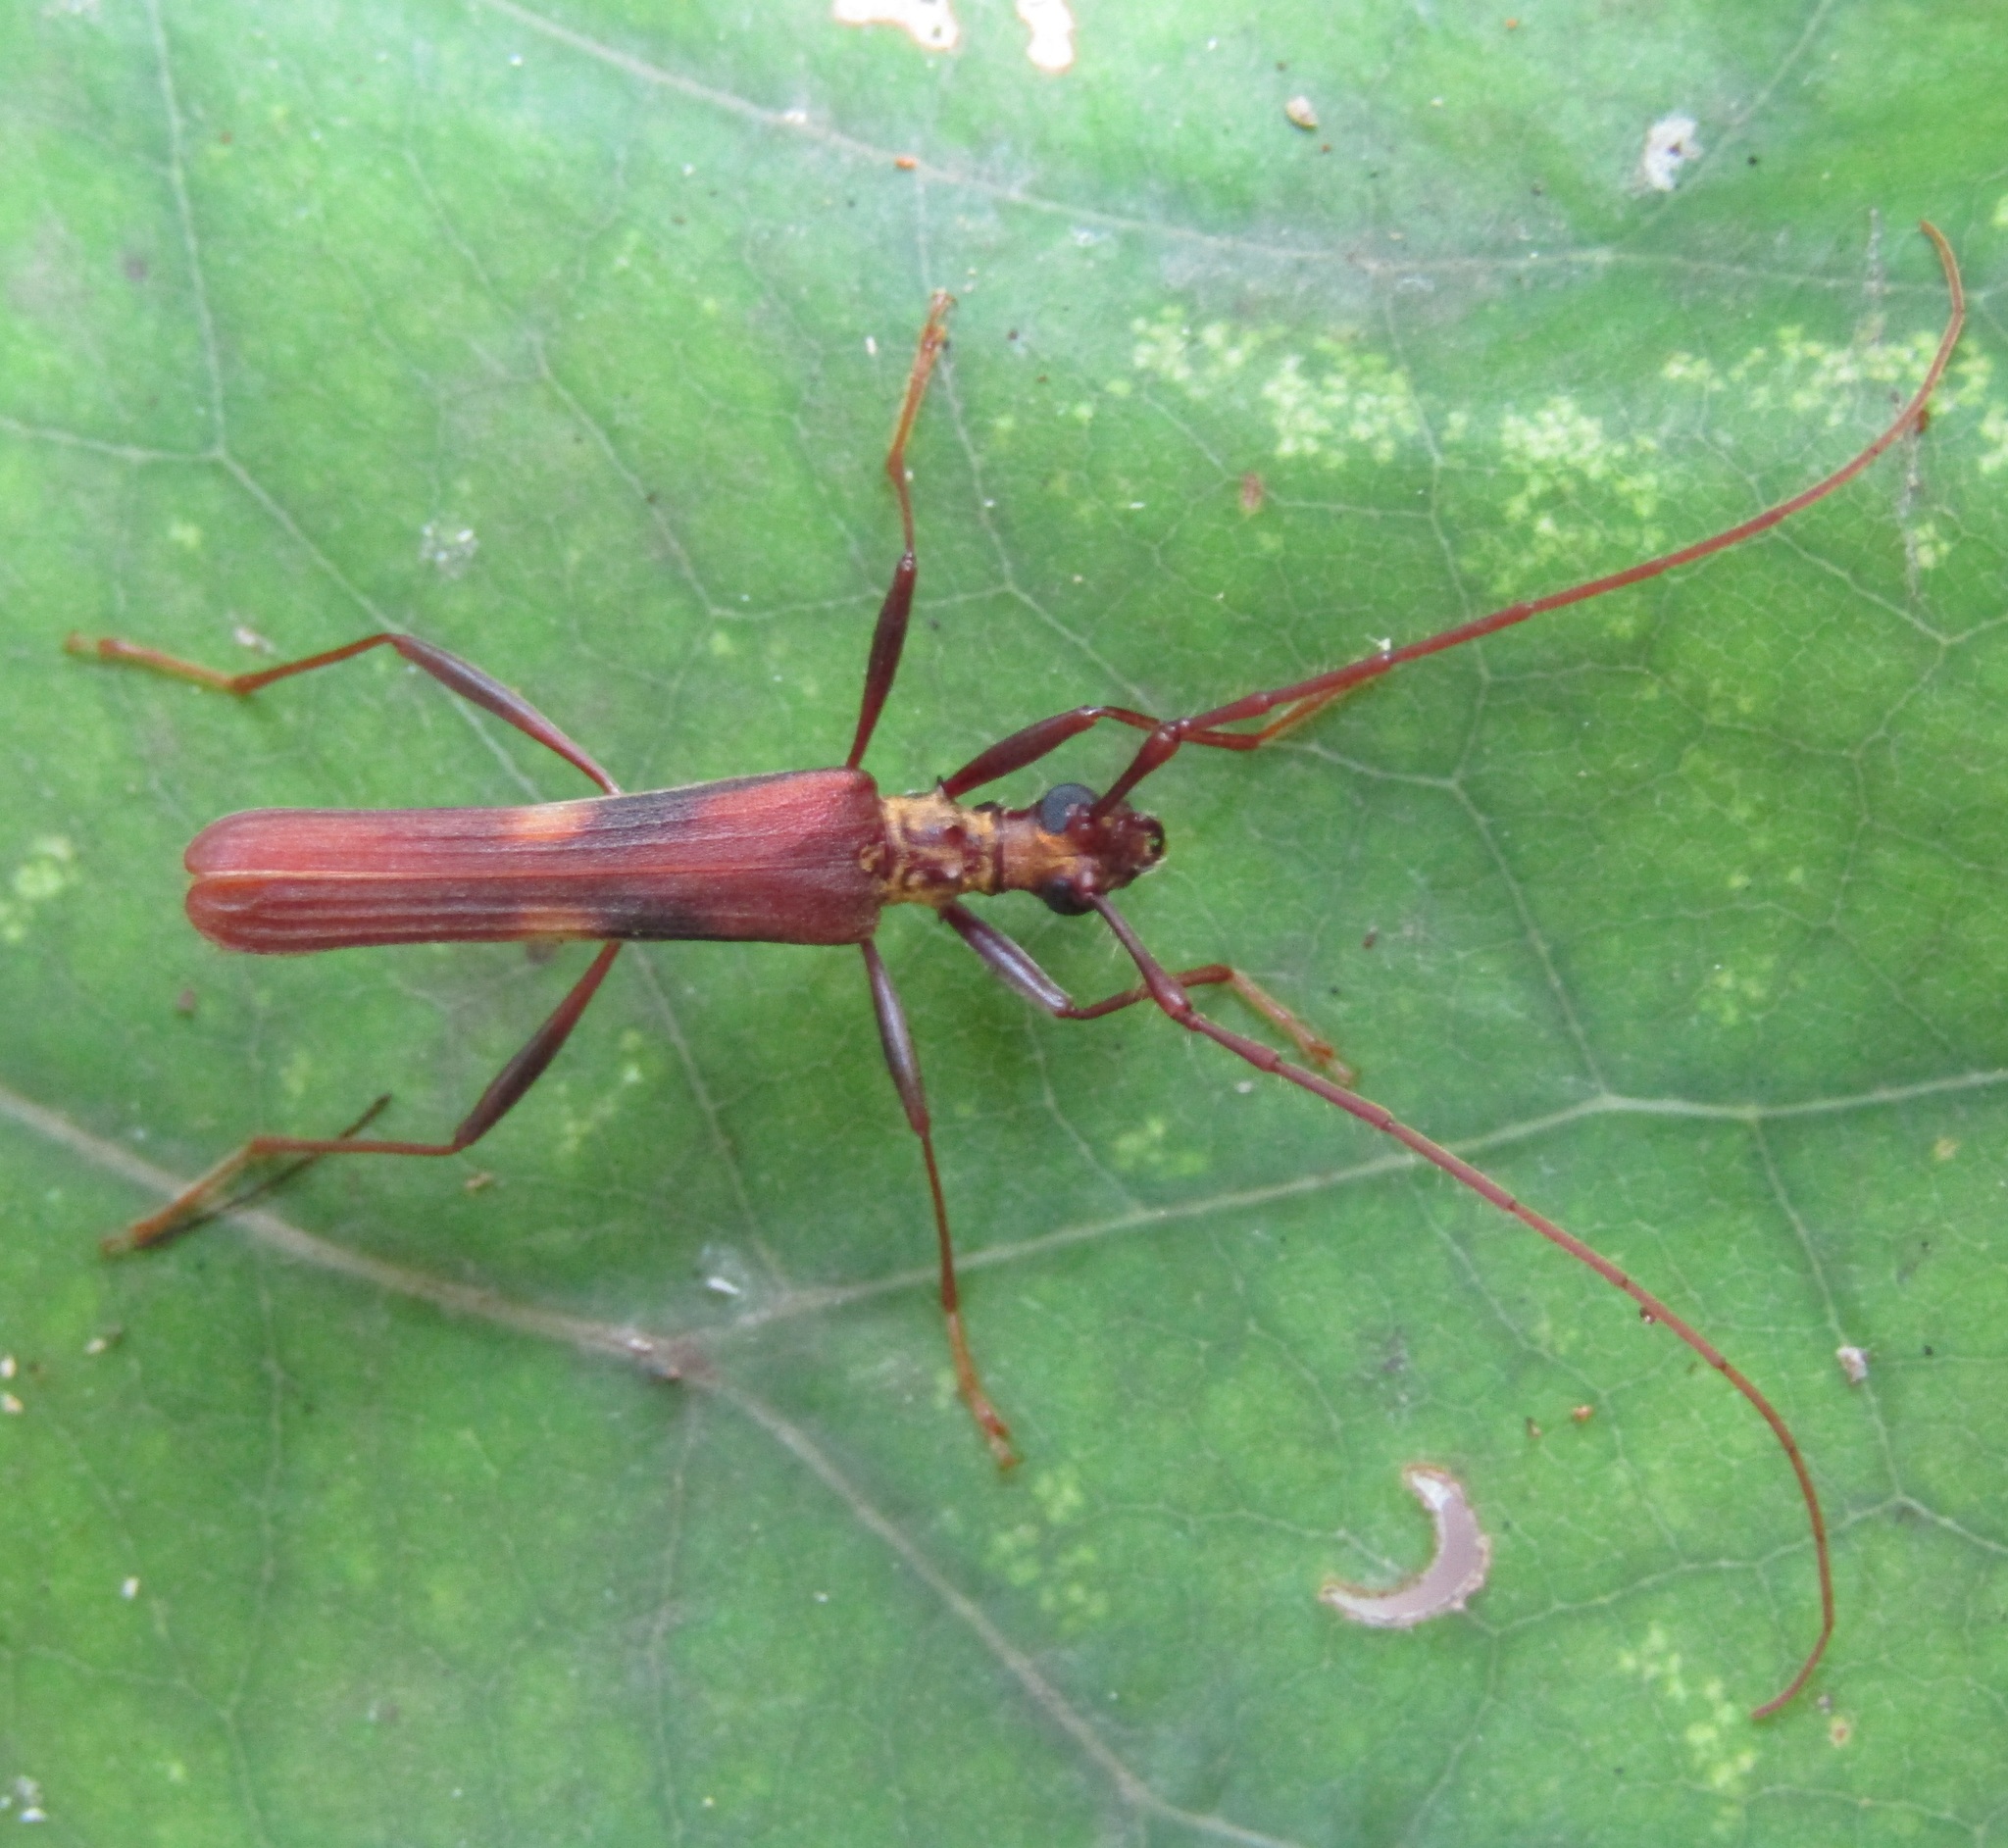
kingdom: Animalia
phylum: Arthropoda
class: Insecta
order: Coleoptera
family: Cerambycidae
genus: Calliprason
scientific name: Calliprason costifer
